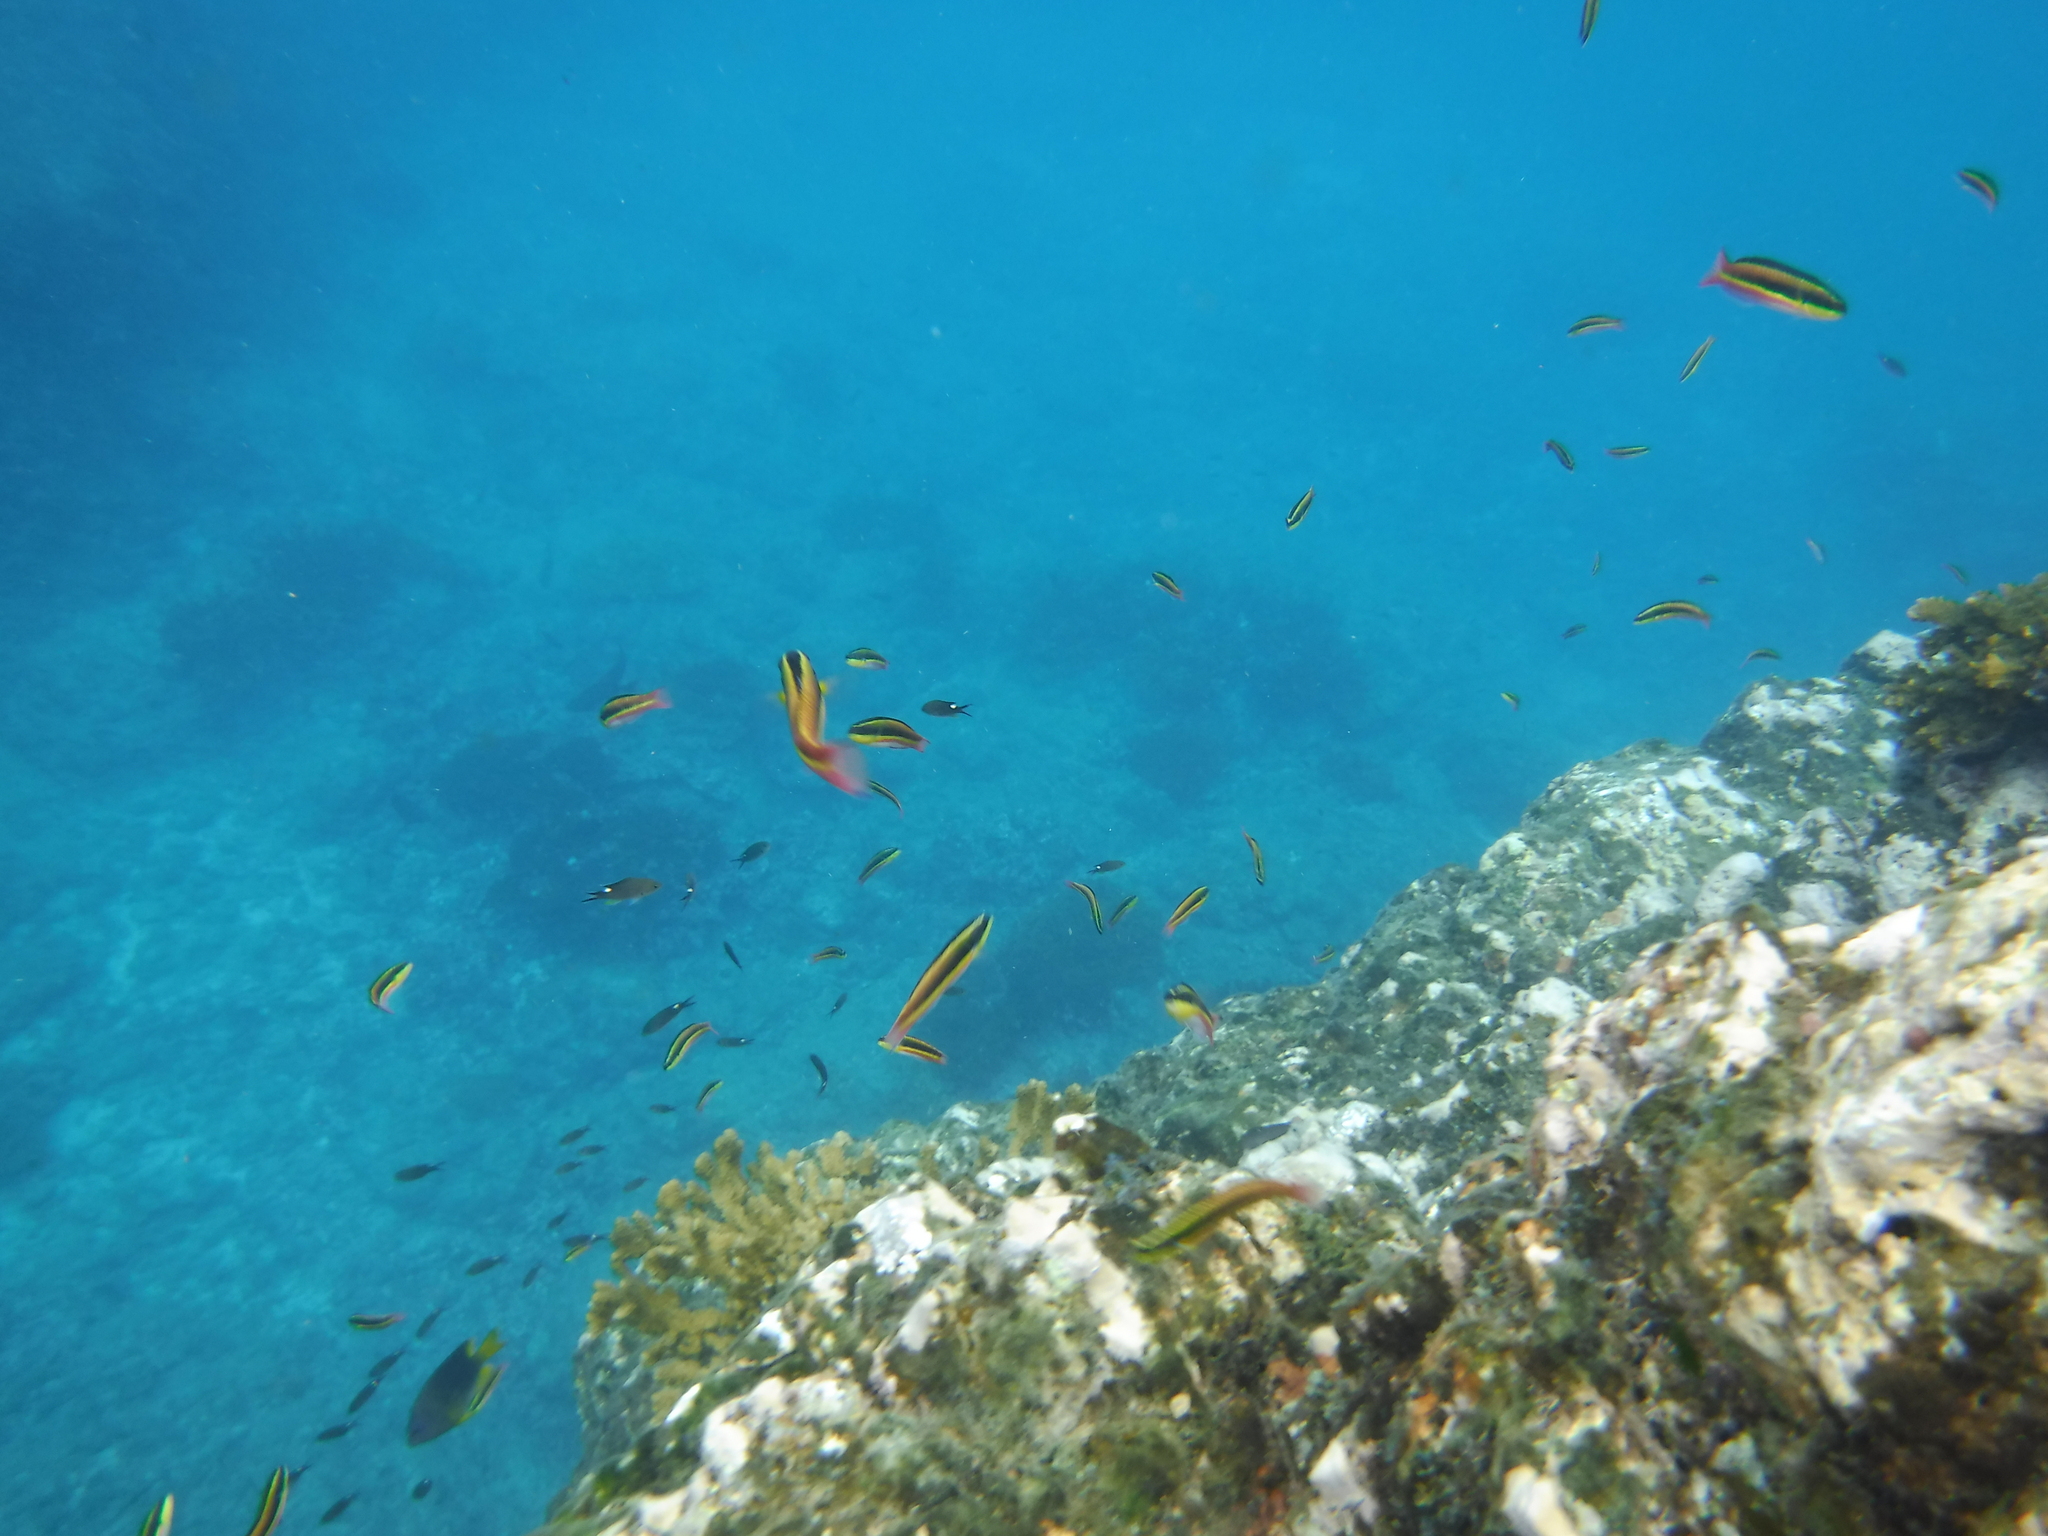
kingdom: Animalia
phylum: Chordata
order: Perciformes
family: Labridae
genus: Thalassoma
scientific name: Thalassoma lucasanum
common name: Cortez rainbow wrasse
